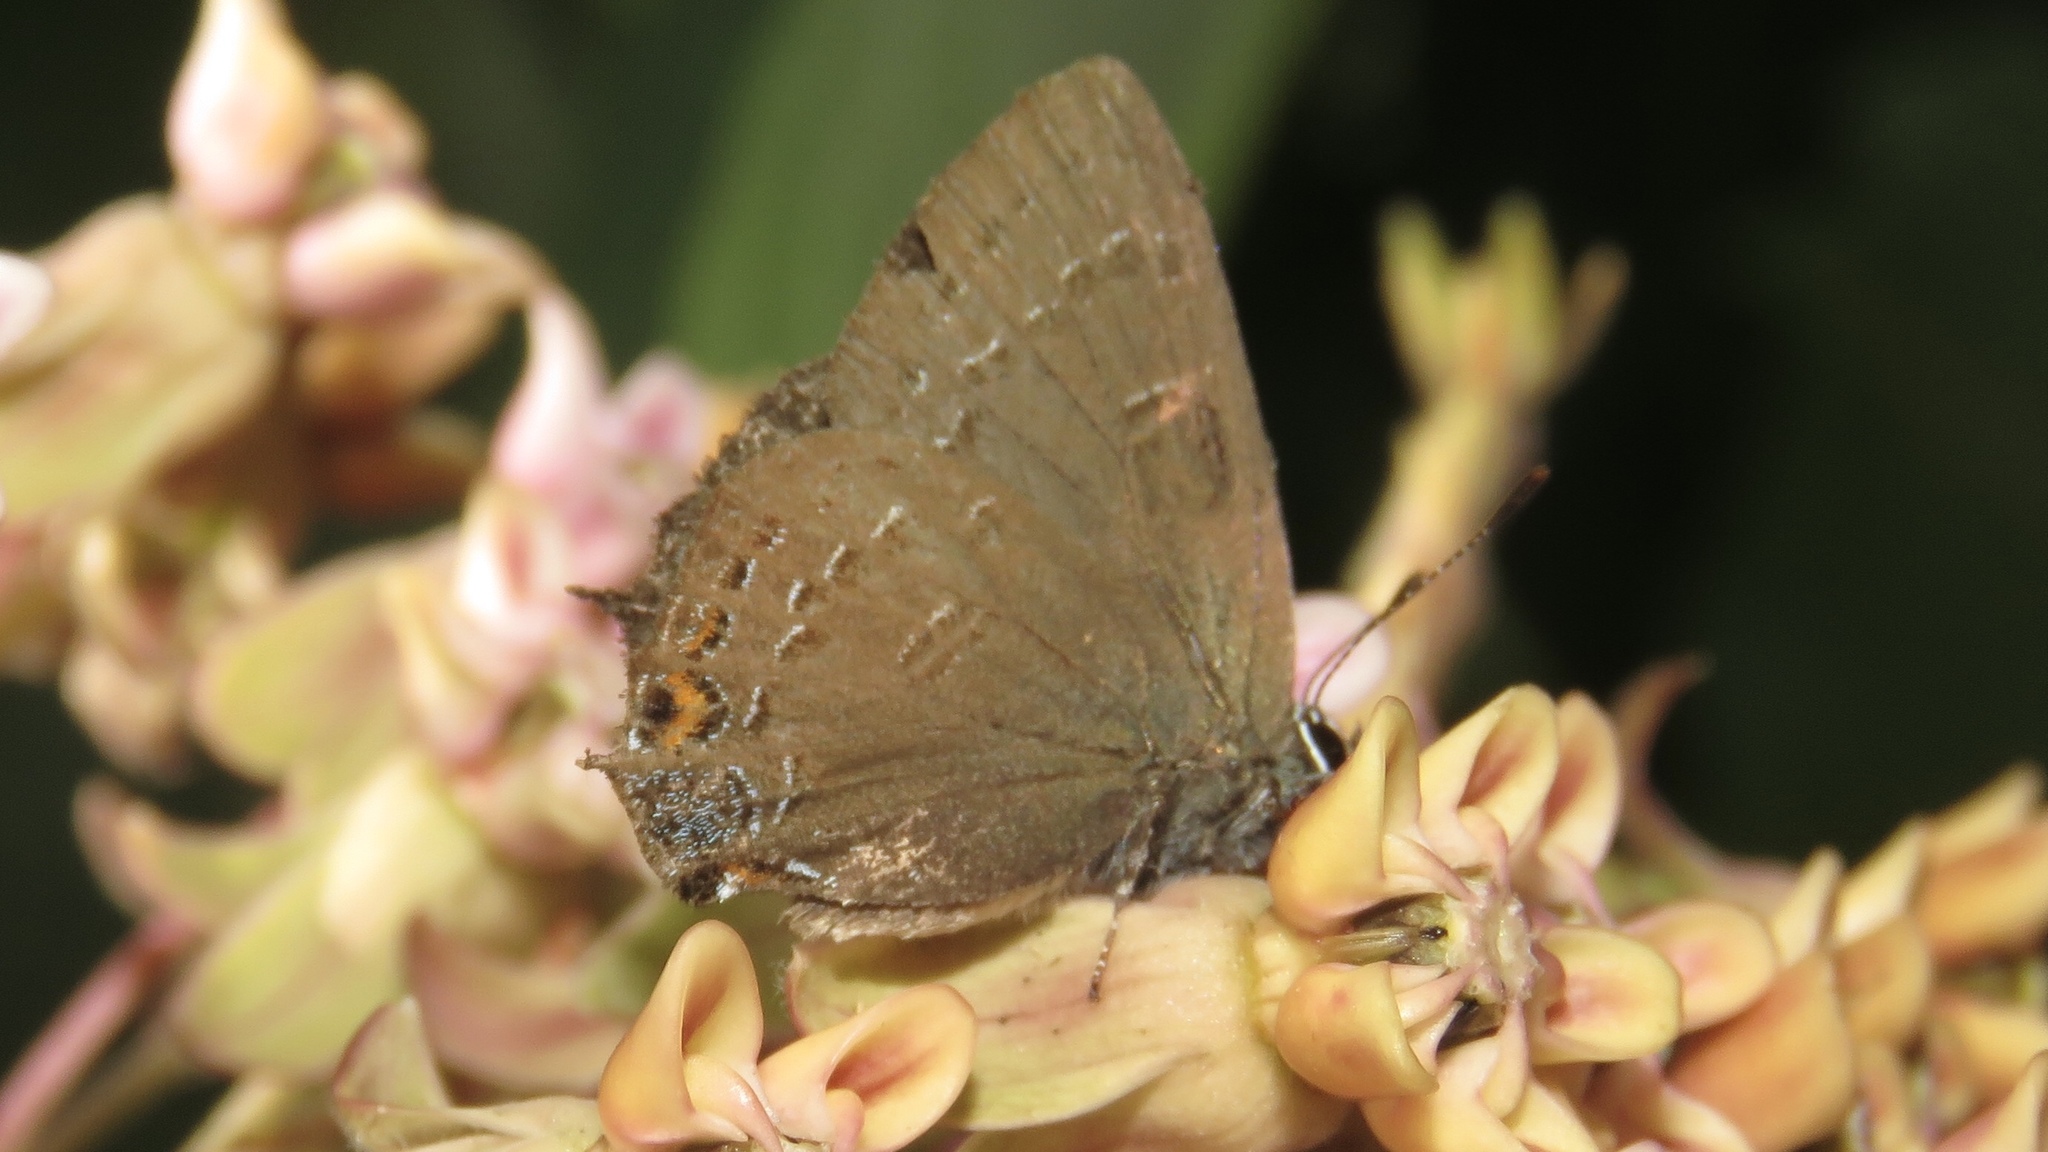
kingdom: Animalia
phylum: Arthropoda
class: Insecta
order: Lepidoptera
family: Lycaenidae
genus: Satyrium
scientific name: Satyrium calanus
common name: Banded hairstreak
